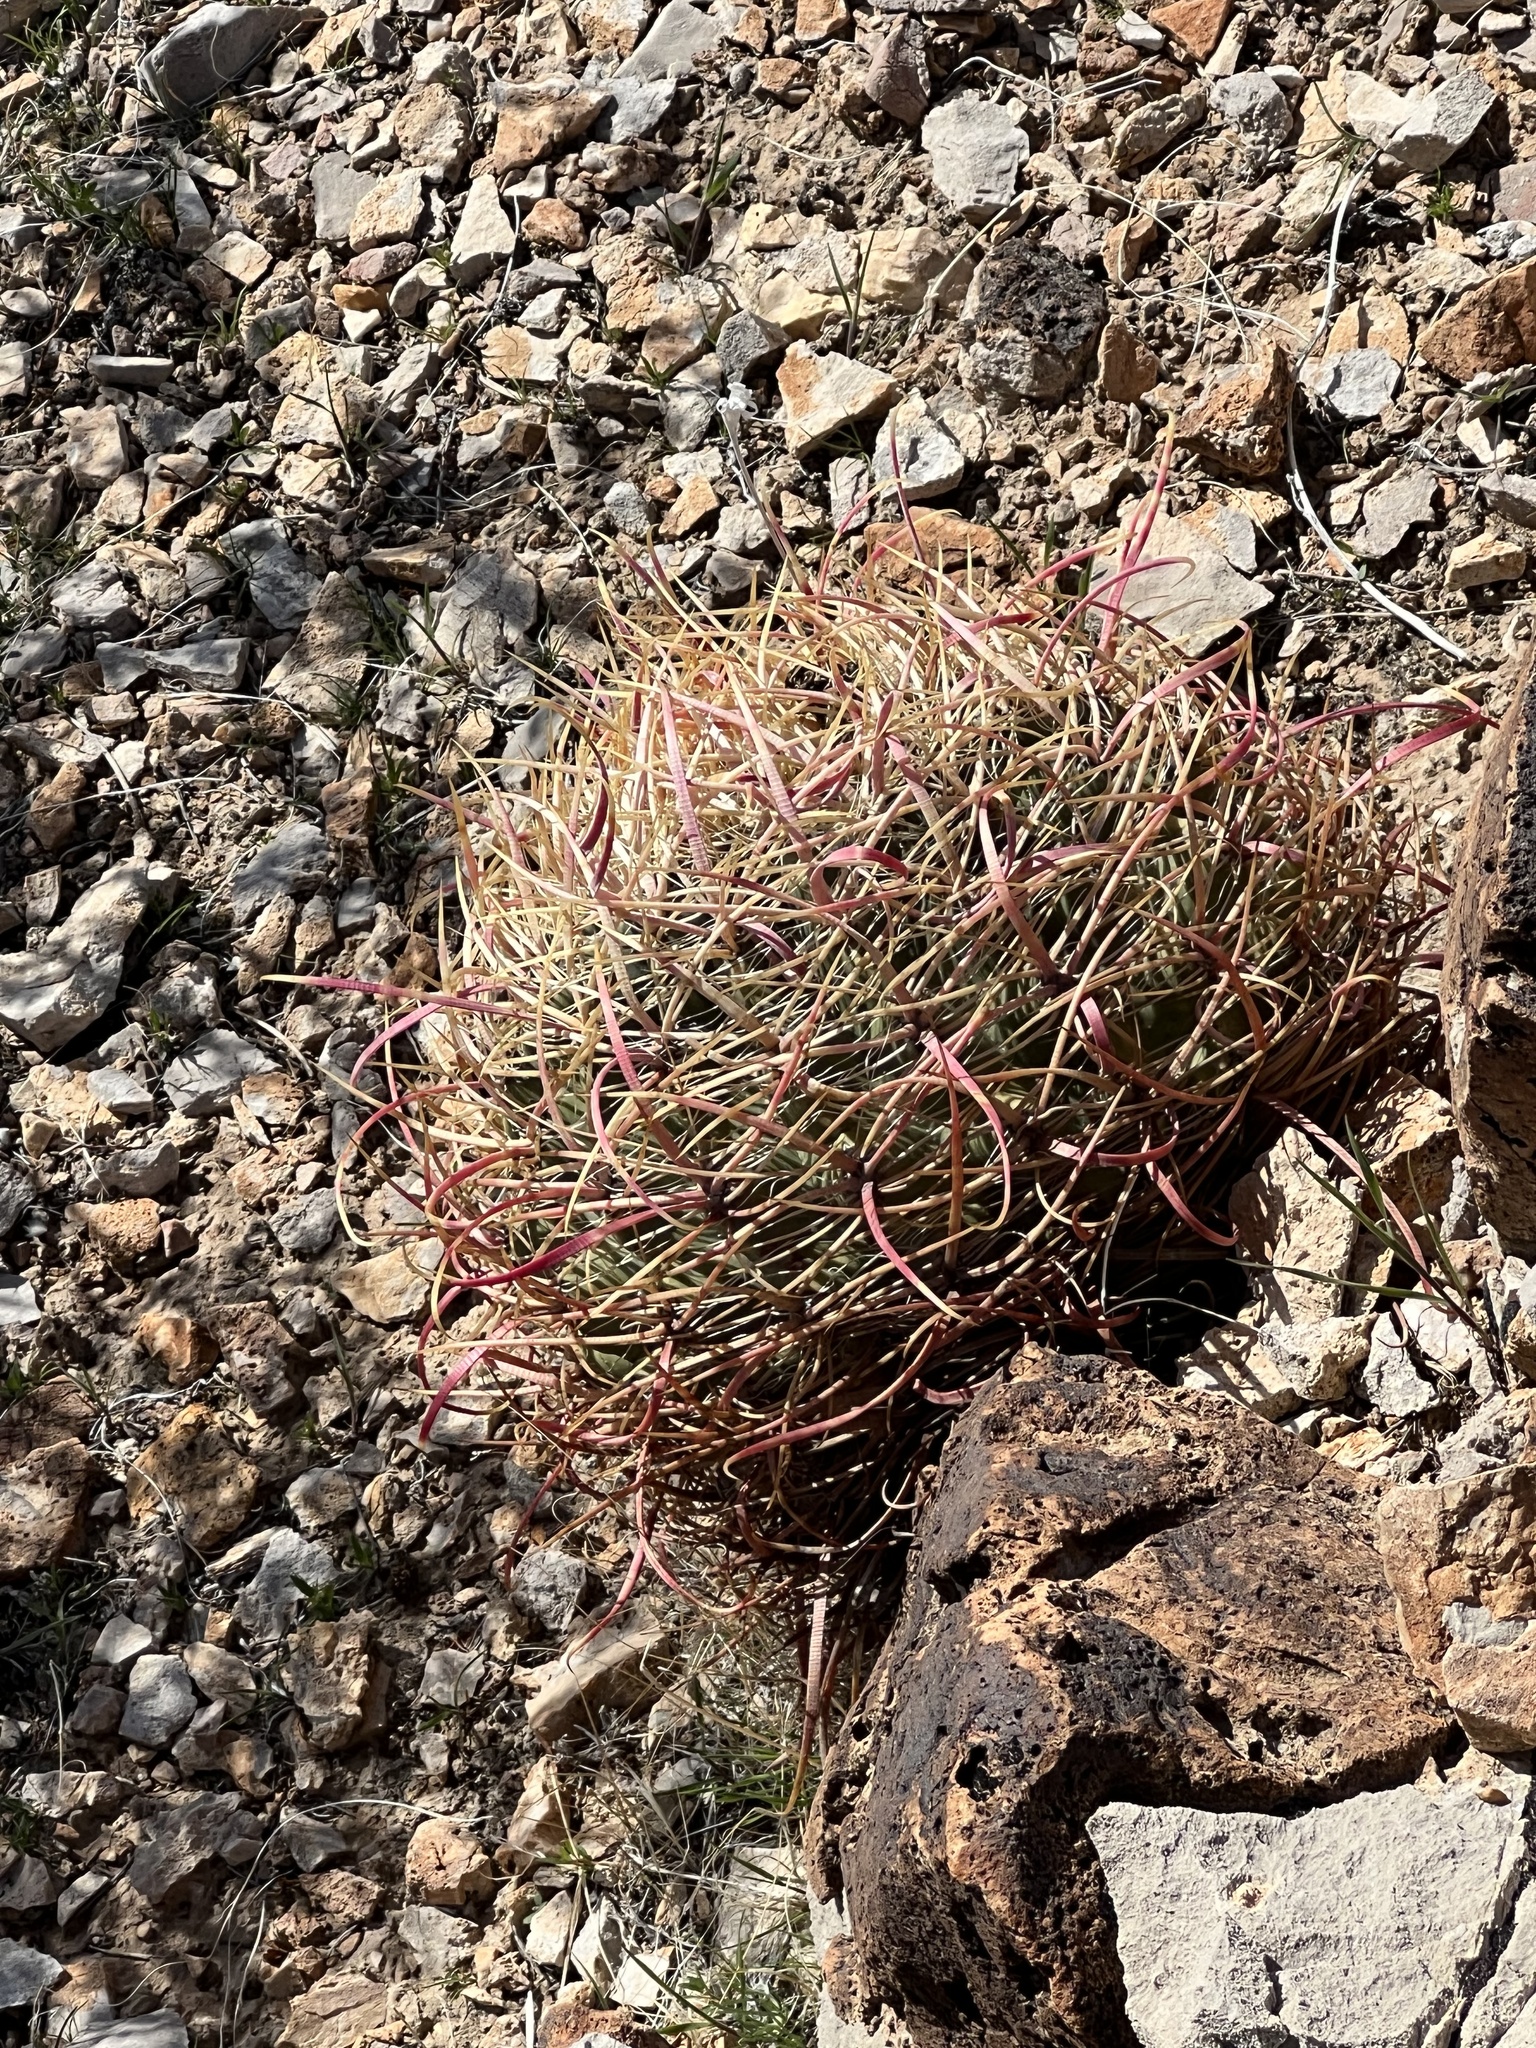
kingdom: Plantae
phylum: Tracheophyta
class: Magnoliopsida
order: Caryophyllales
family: Cactaceae
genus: Ferocactus
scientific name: Ferocactus cylindraceus
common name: California barrel cactus
